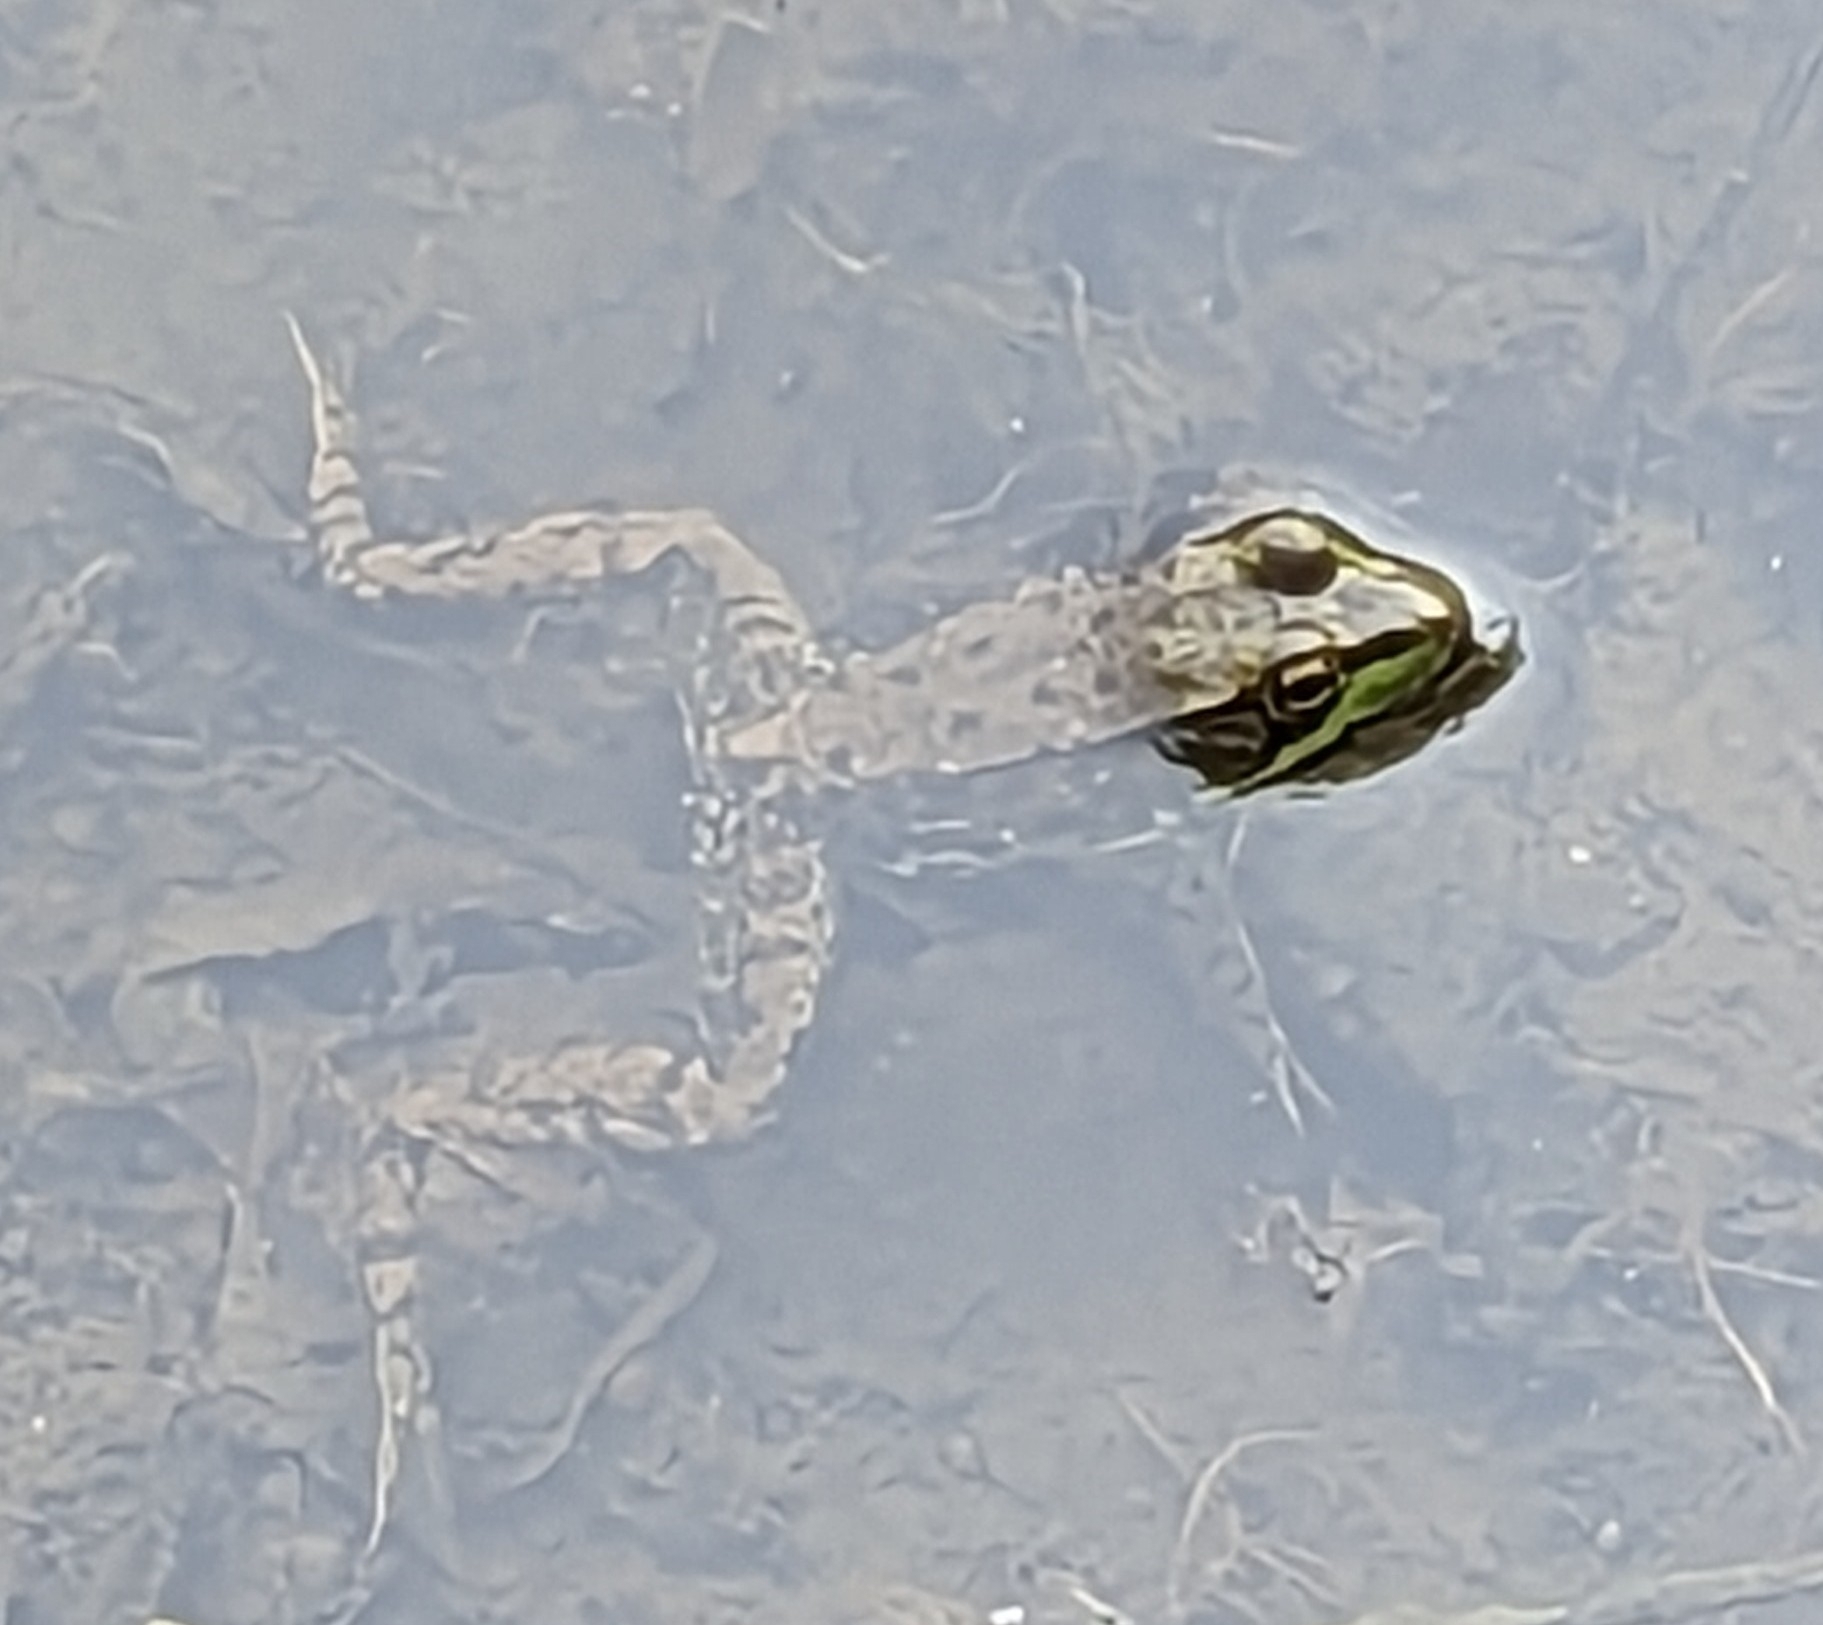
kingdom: Animalia
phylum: Chordata
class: Amphibia
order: Anura
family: Ranidae
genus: Lithobates
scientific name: Lithobates clamitans
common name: Green frog
